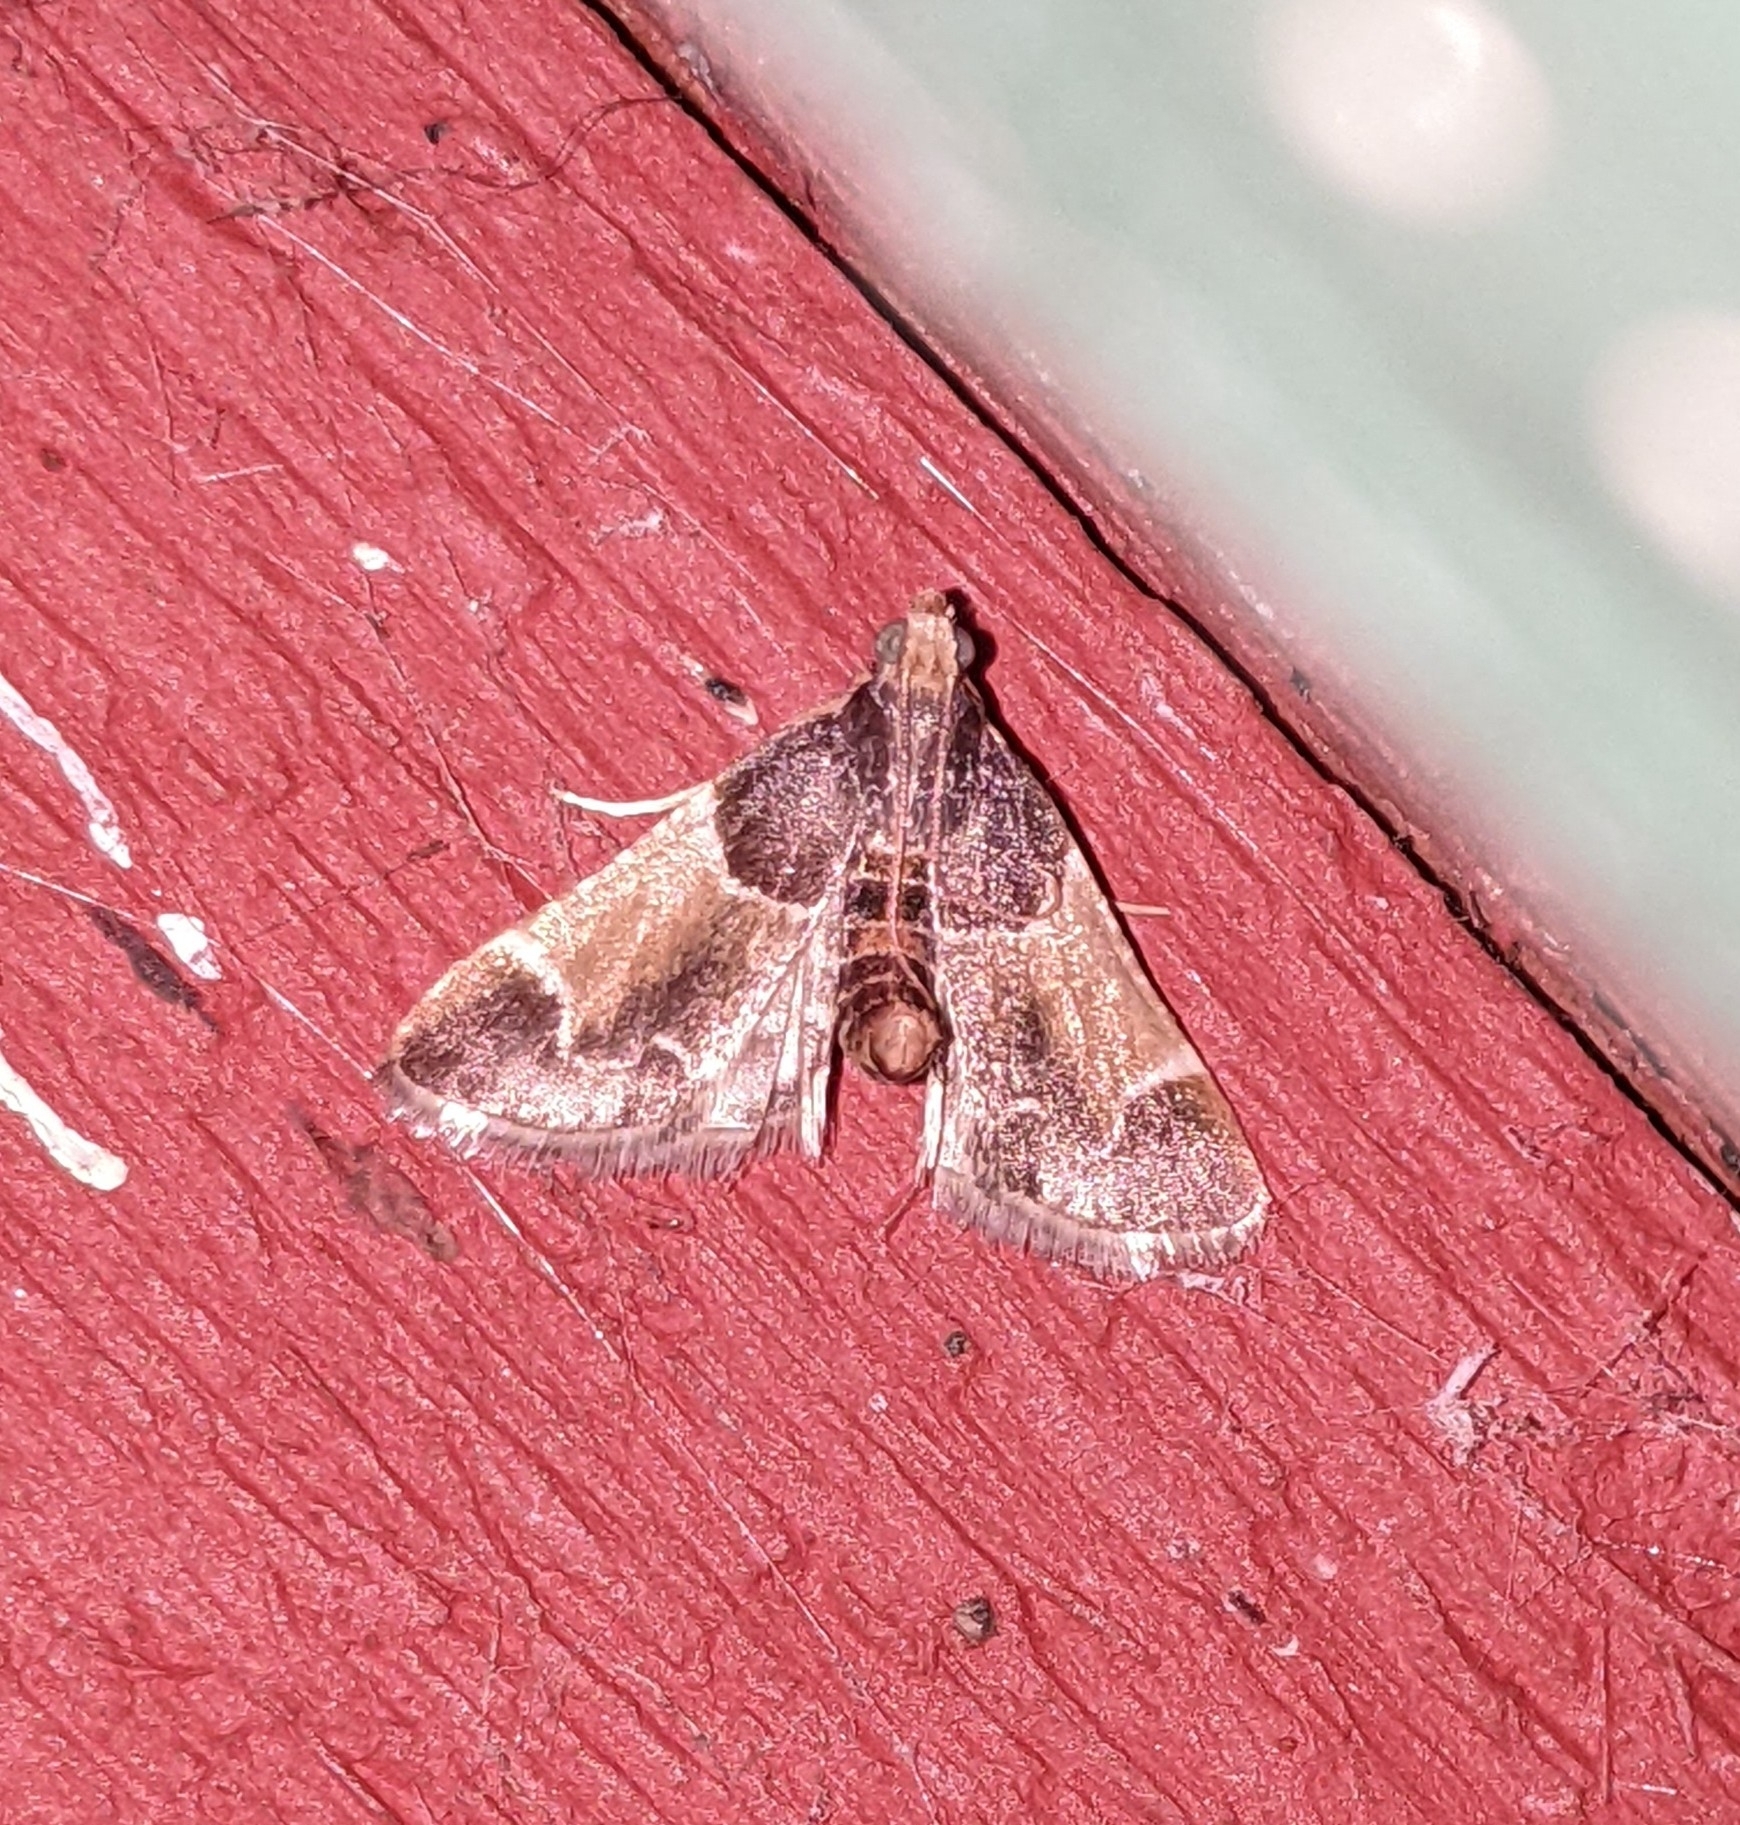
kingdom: Animalia
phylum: Arthropoda
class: Insecta
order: Lepidoptera
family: Pyralidae
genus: Pyralis
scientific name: Pyralis farinalis
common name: Meal moth
